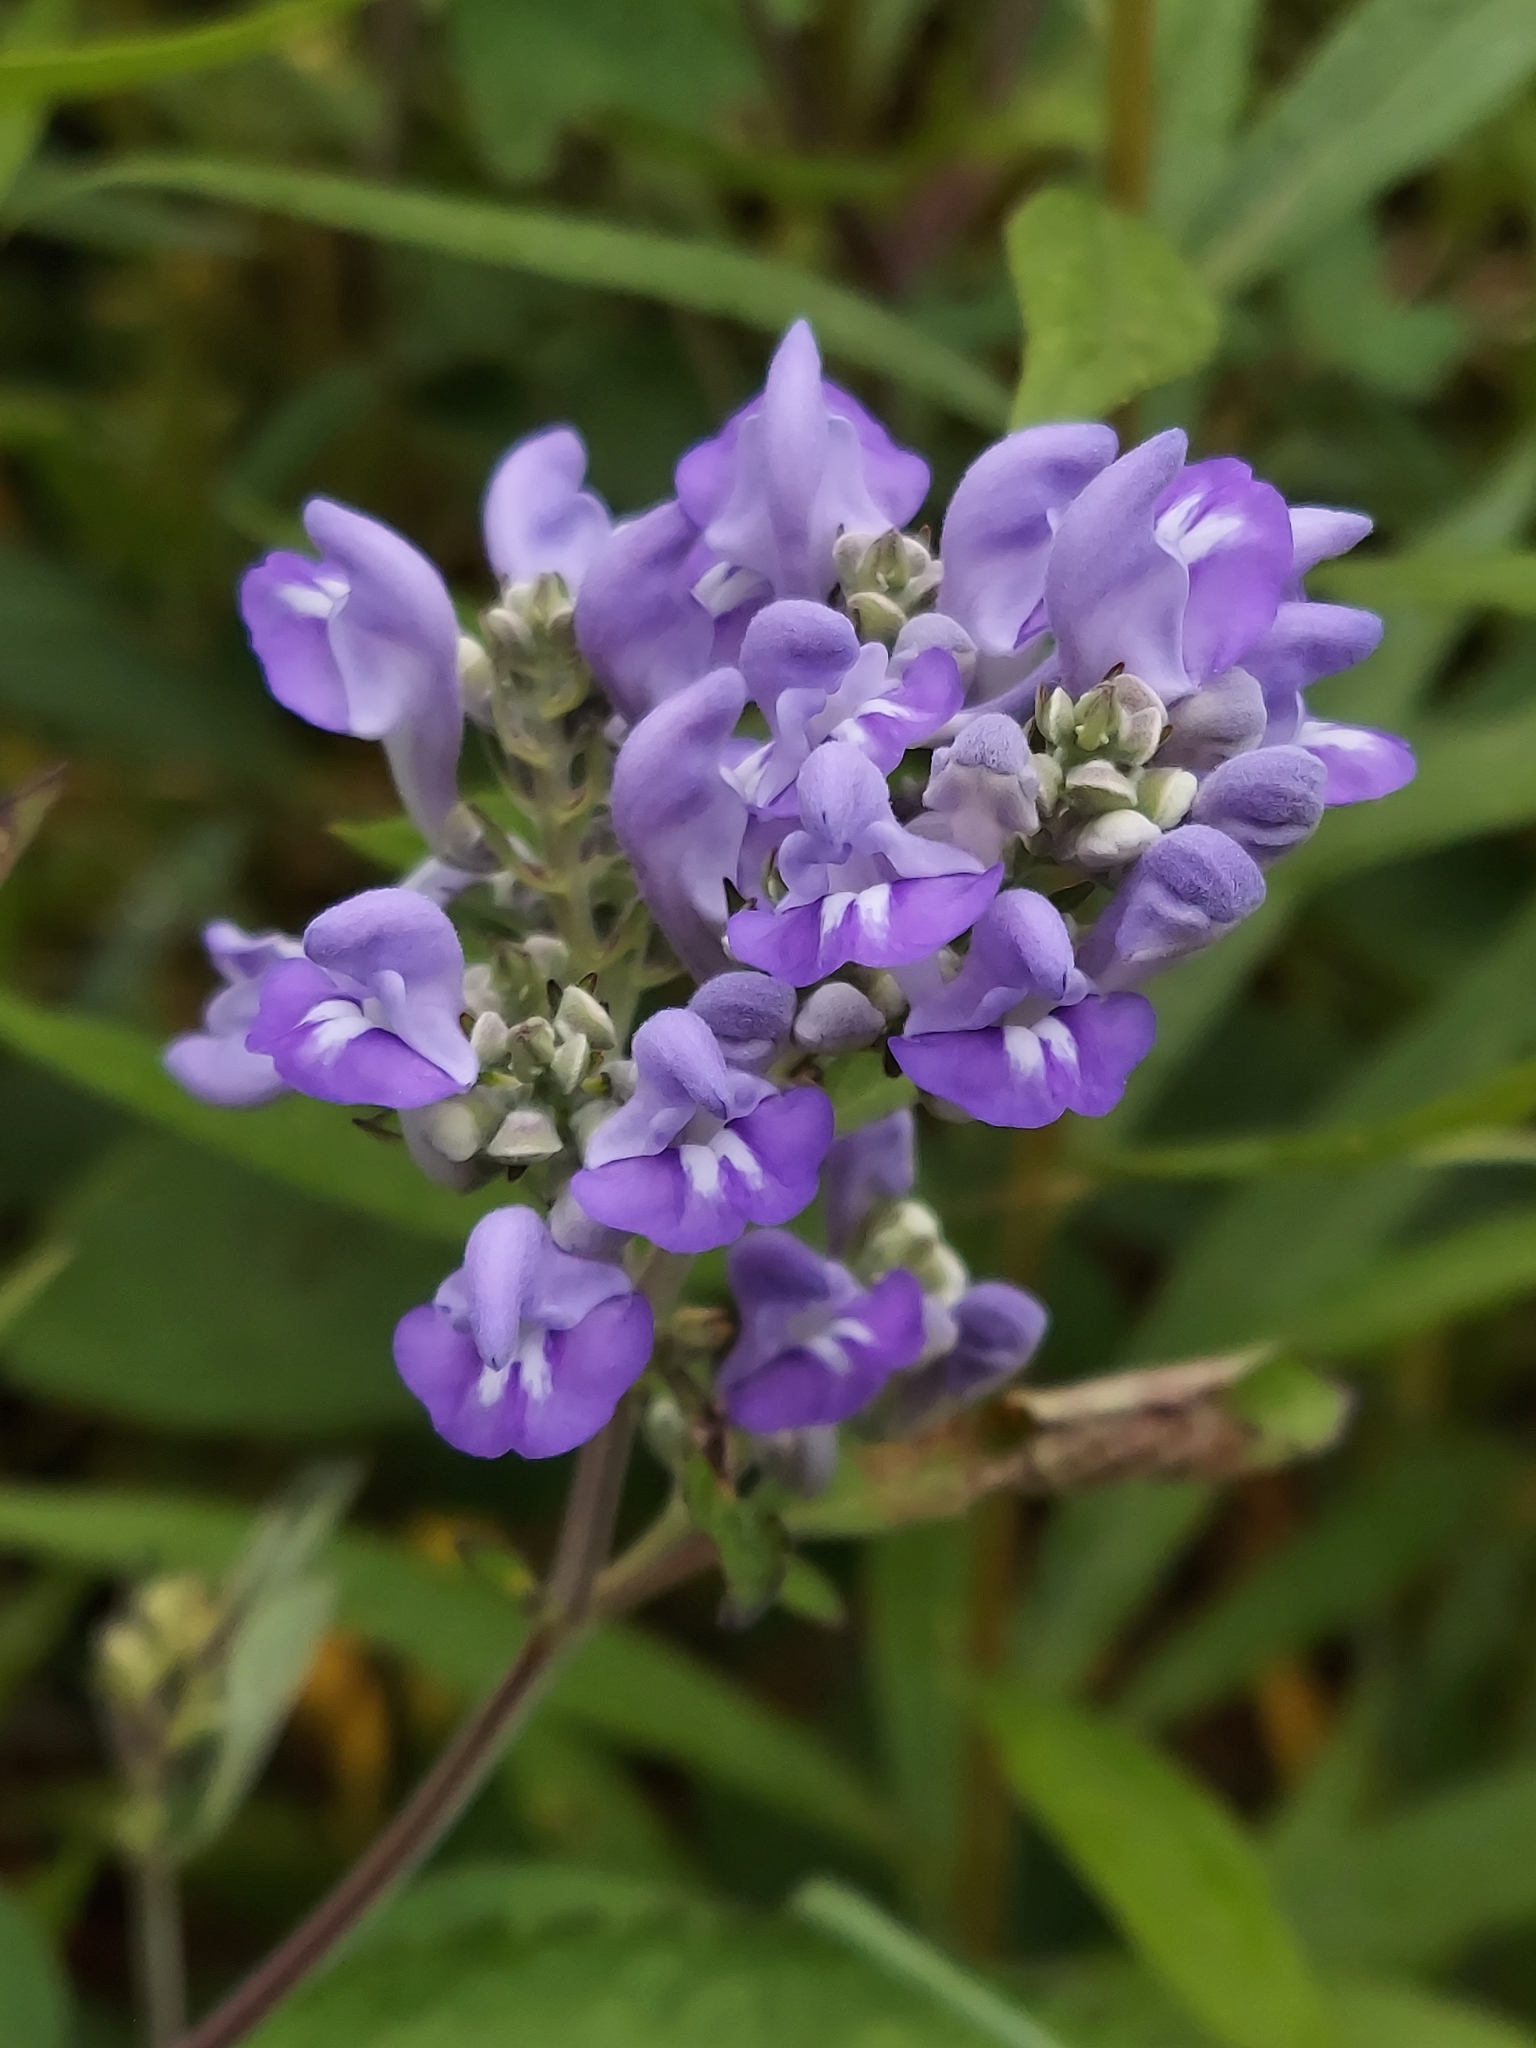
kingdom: Plantae
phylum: Tracheophyta
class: Magnoliopsida
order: Lamiales
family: Lamiaceae
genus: Scutellaria
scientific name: Scutellaria incana
